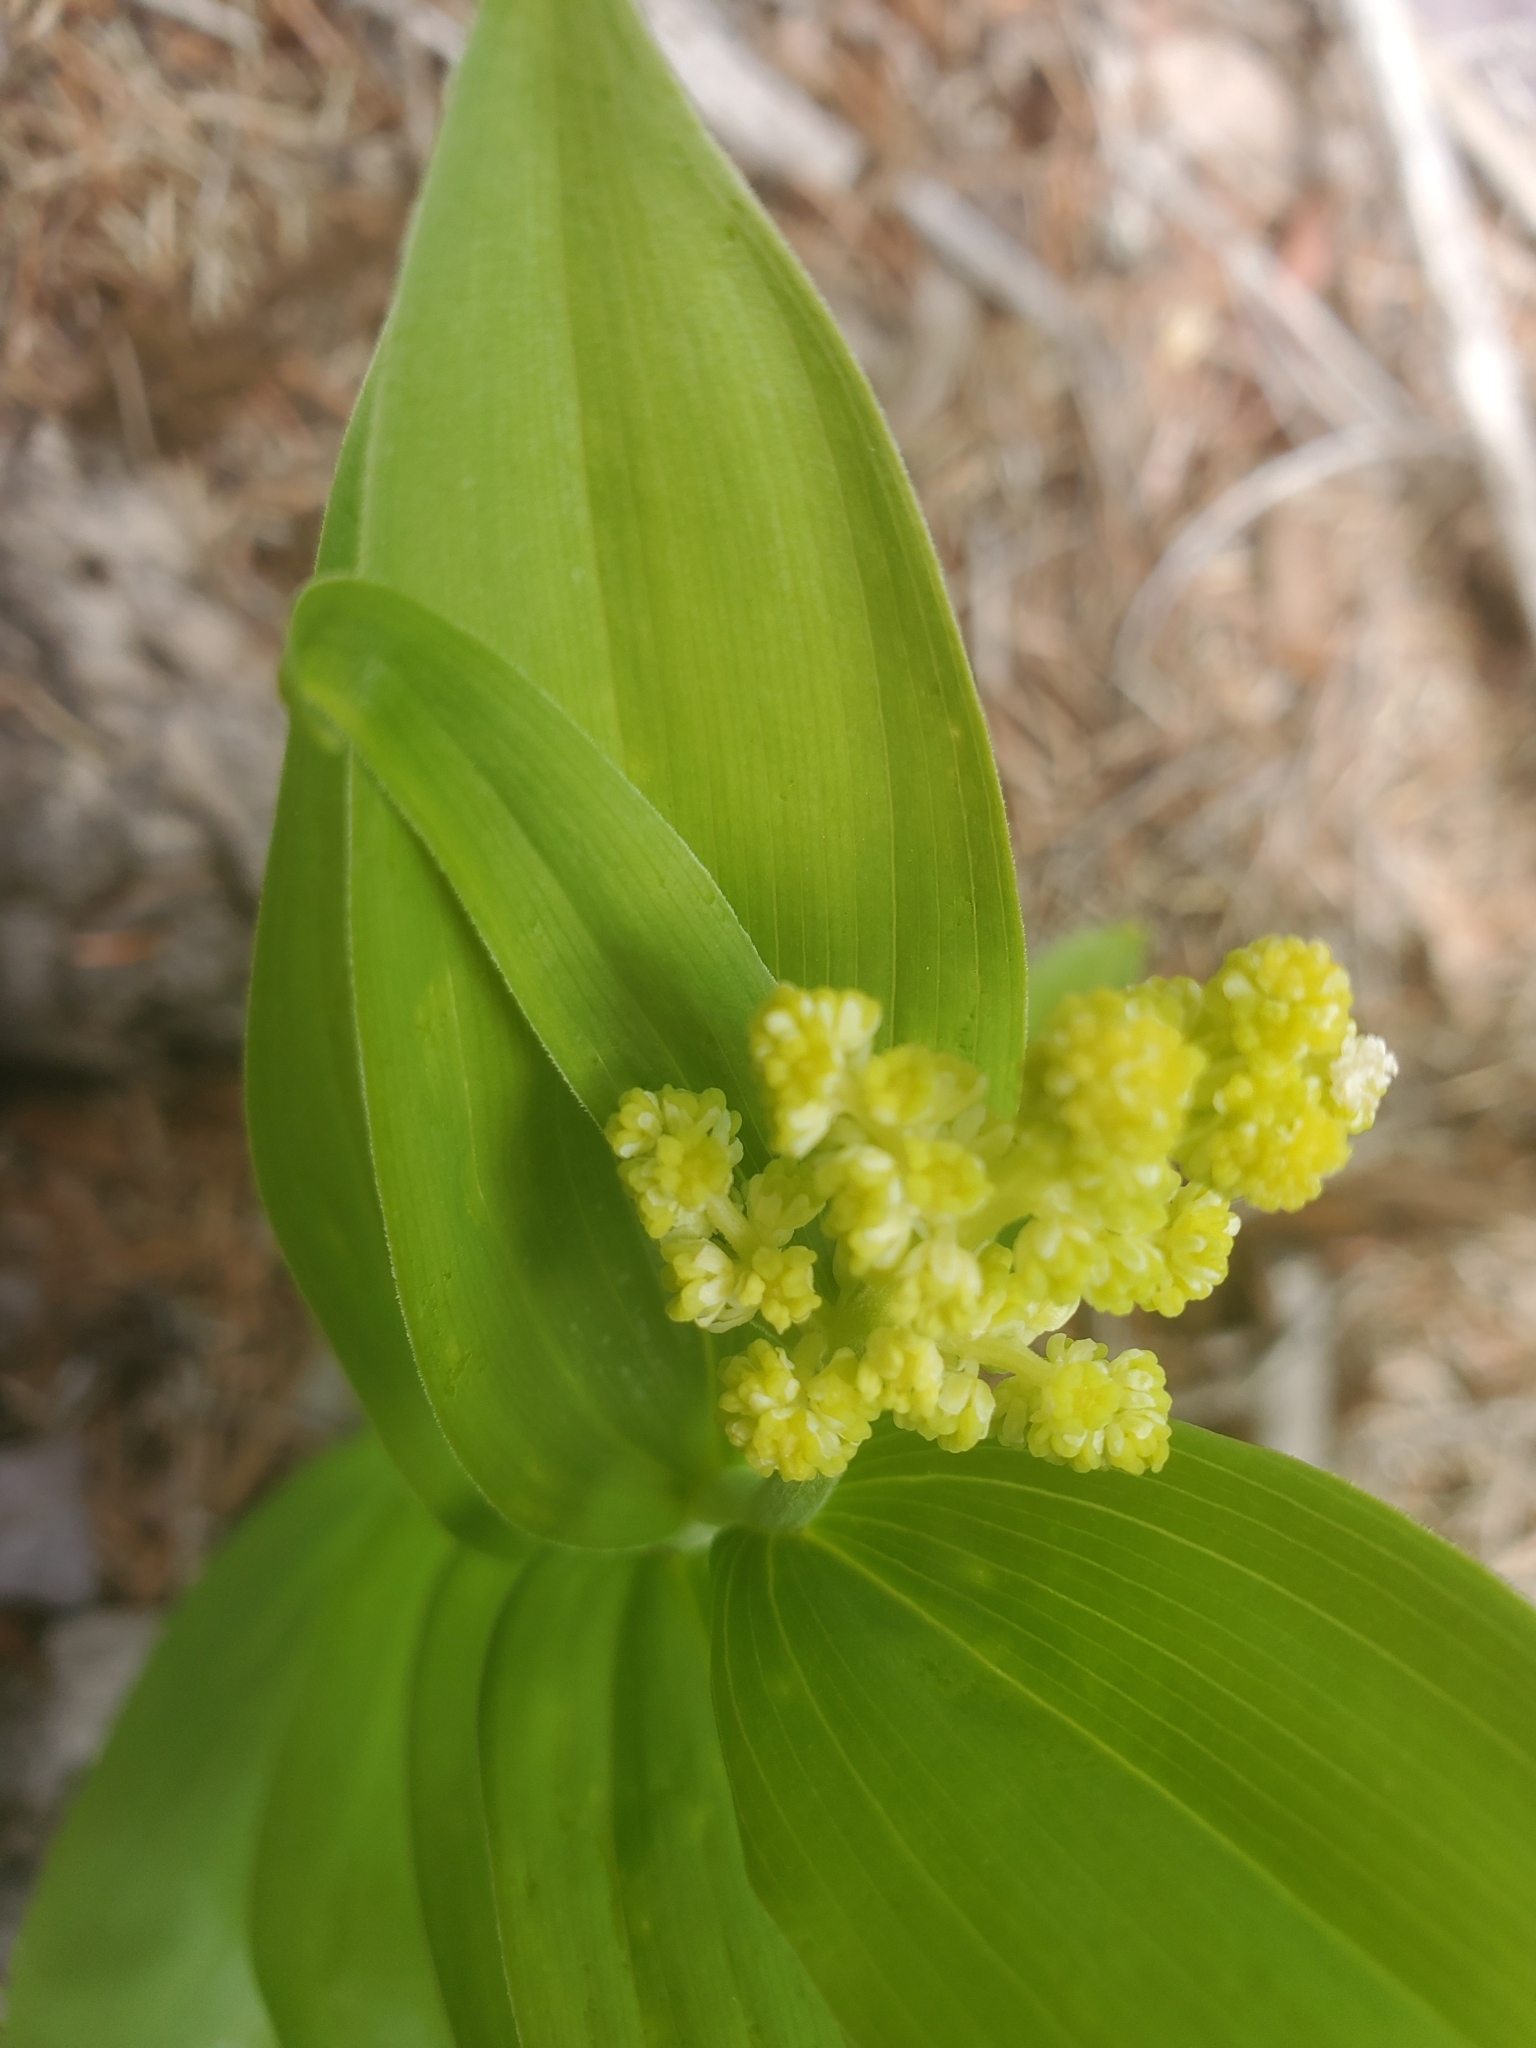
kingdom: Plantae
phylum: Tracheophyta
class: Liliopsida
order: Asparagales
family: Asparagaceae
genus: Maianthemum
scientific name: Maianthemum racemosum
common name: False spikenard
